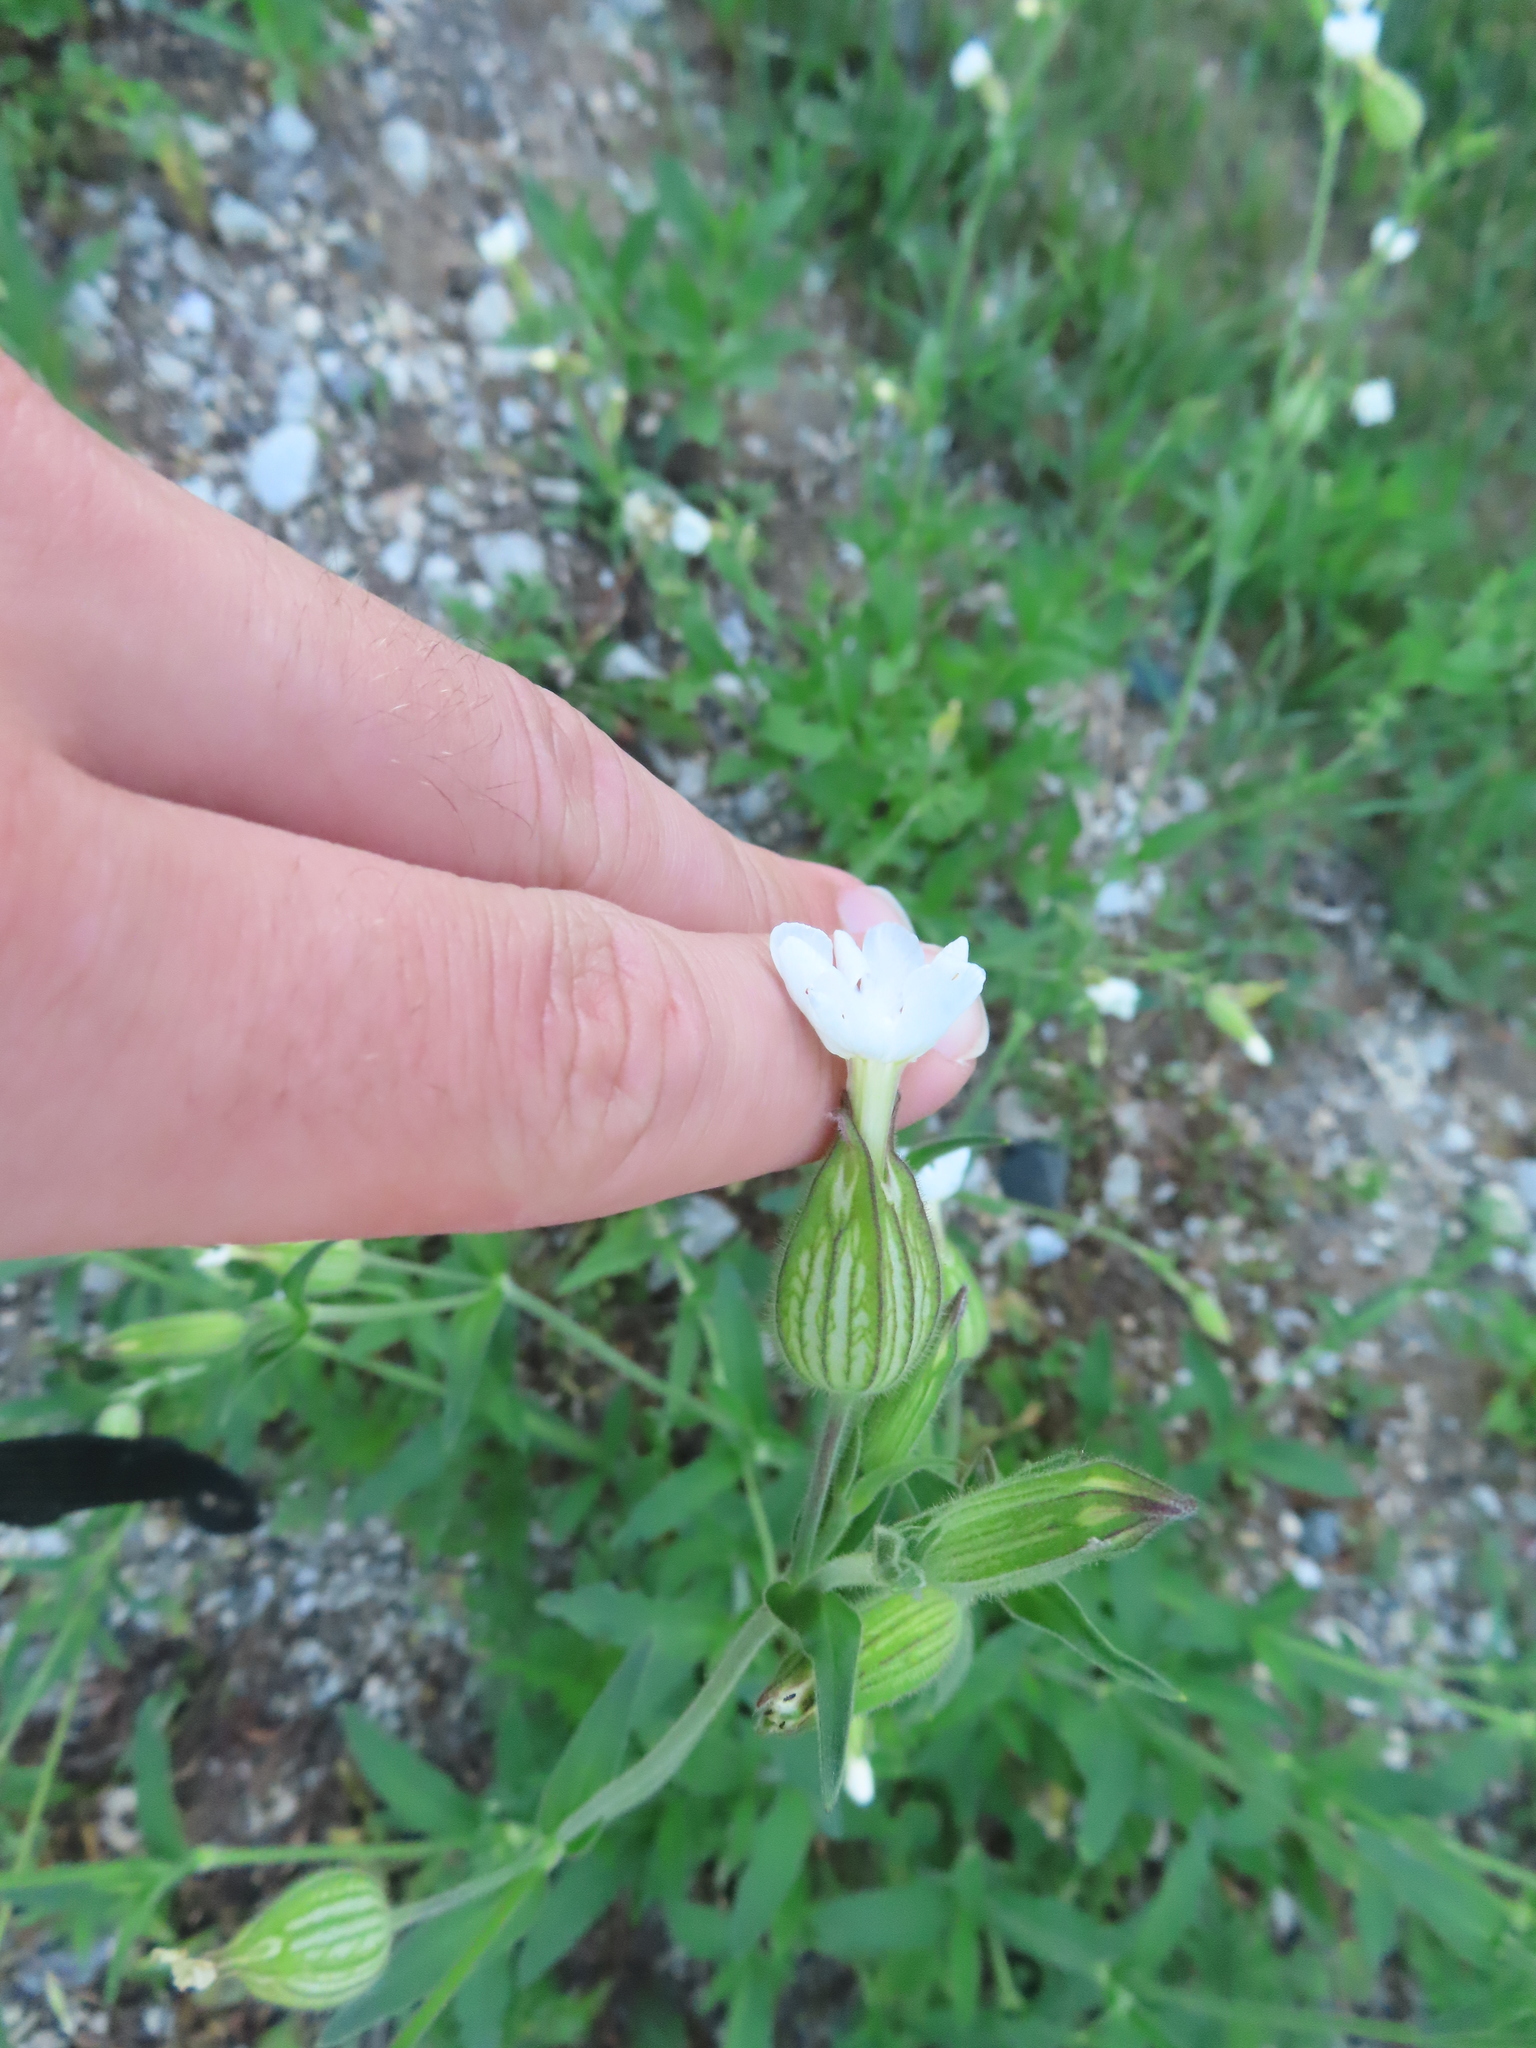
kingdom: Plantae
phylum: Tracheophyta
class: Magnoliopsida
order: Caryophyllales
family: Caryophyllaceae
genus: Silene
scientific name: Silene latifolia
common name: White campion
